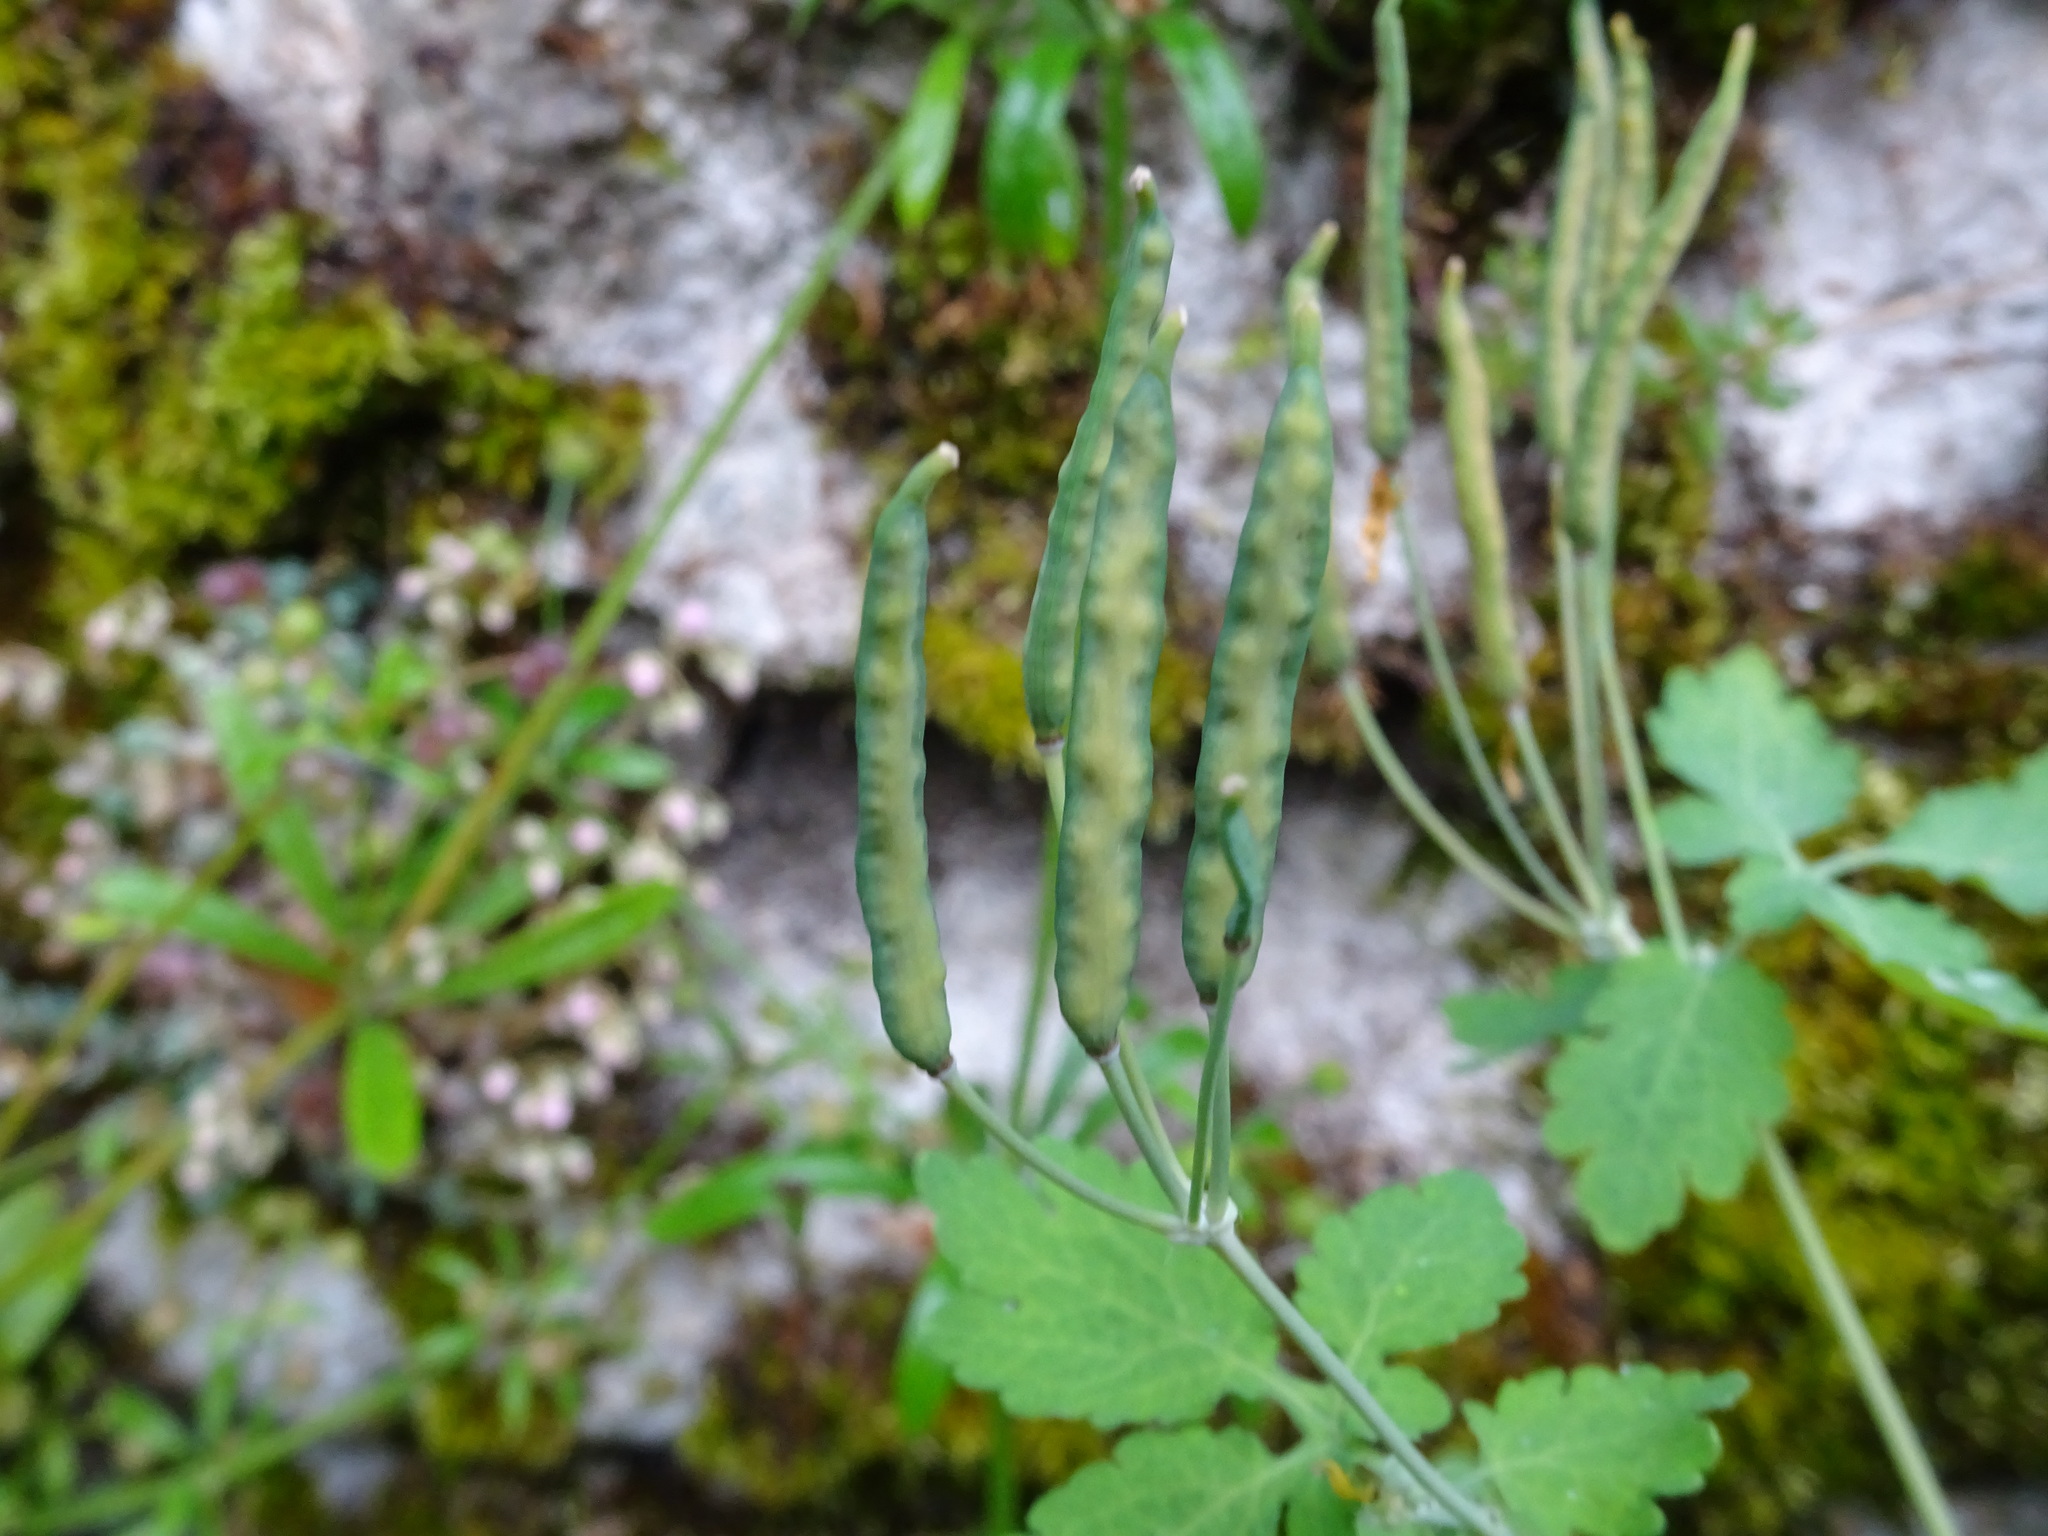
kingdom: Plantae
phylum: Tracheophyta
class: Magnoliopsida
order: Ranunculales
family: Papaveraceae
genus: Chelidonium
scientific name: Chelidonium majus
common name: Greater celandine
